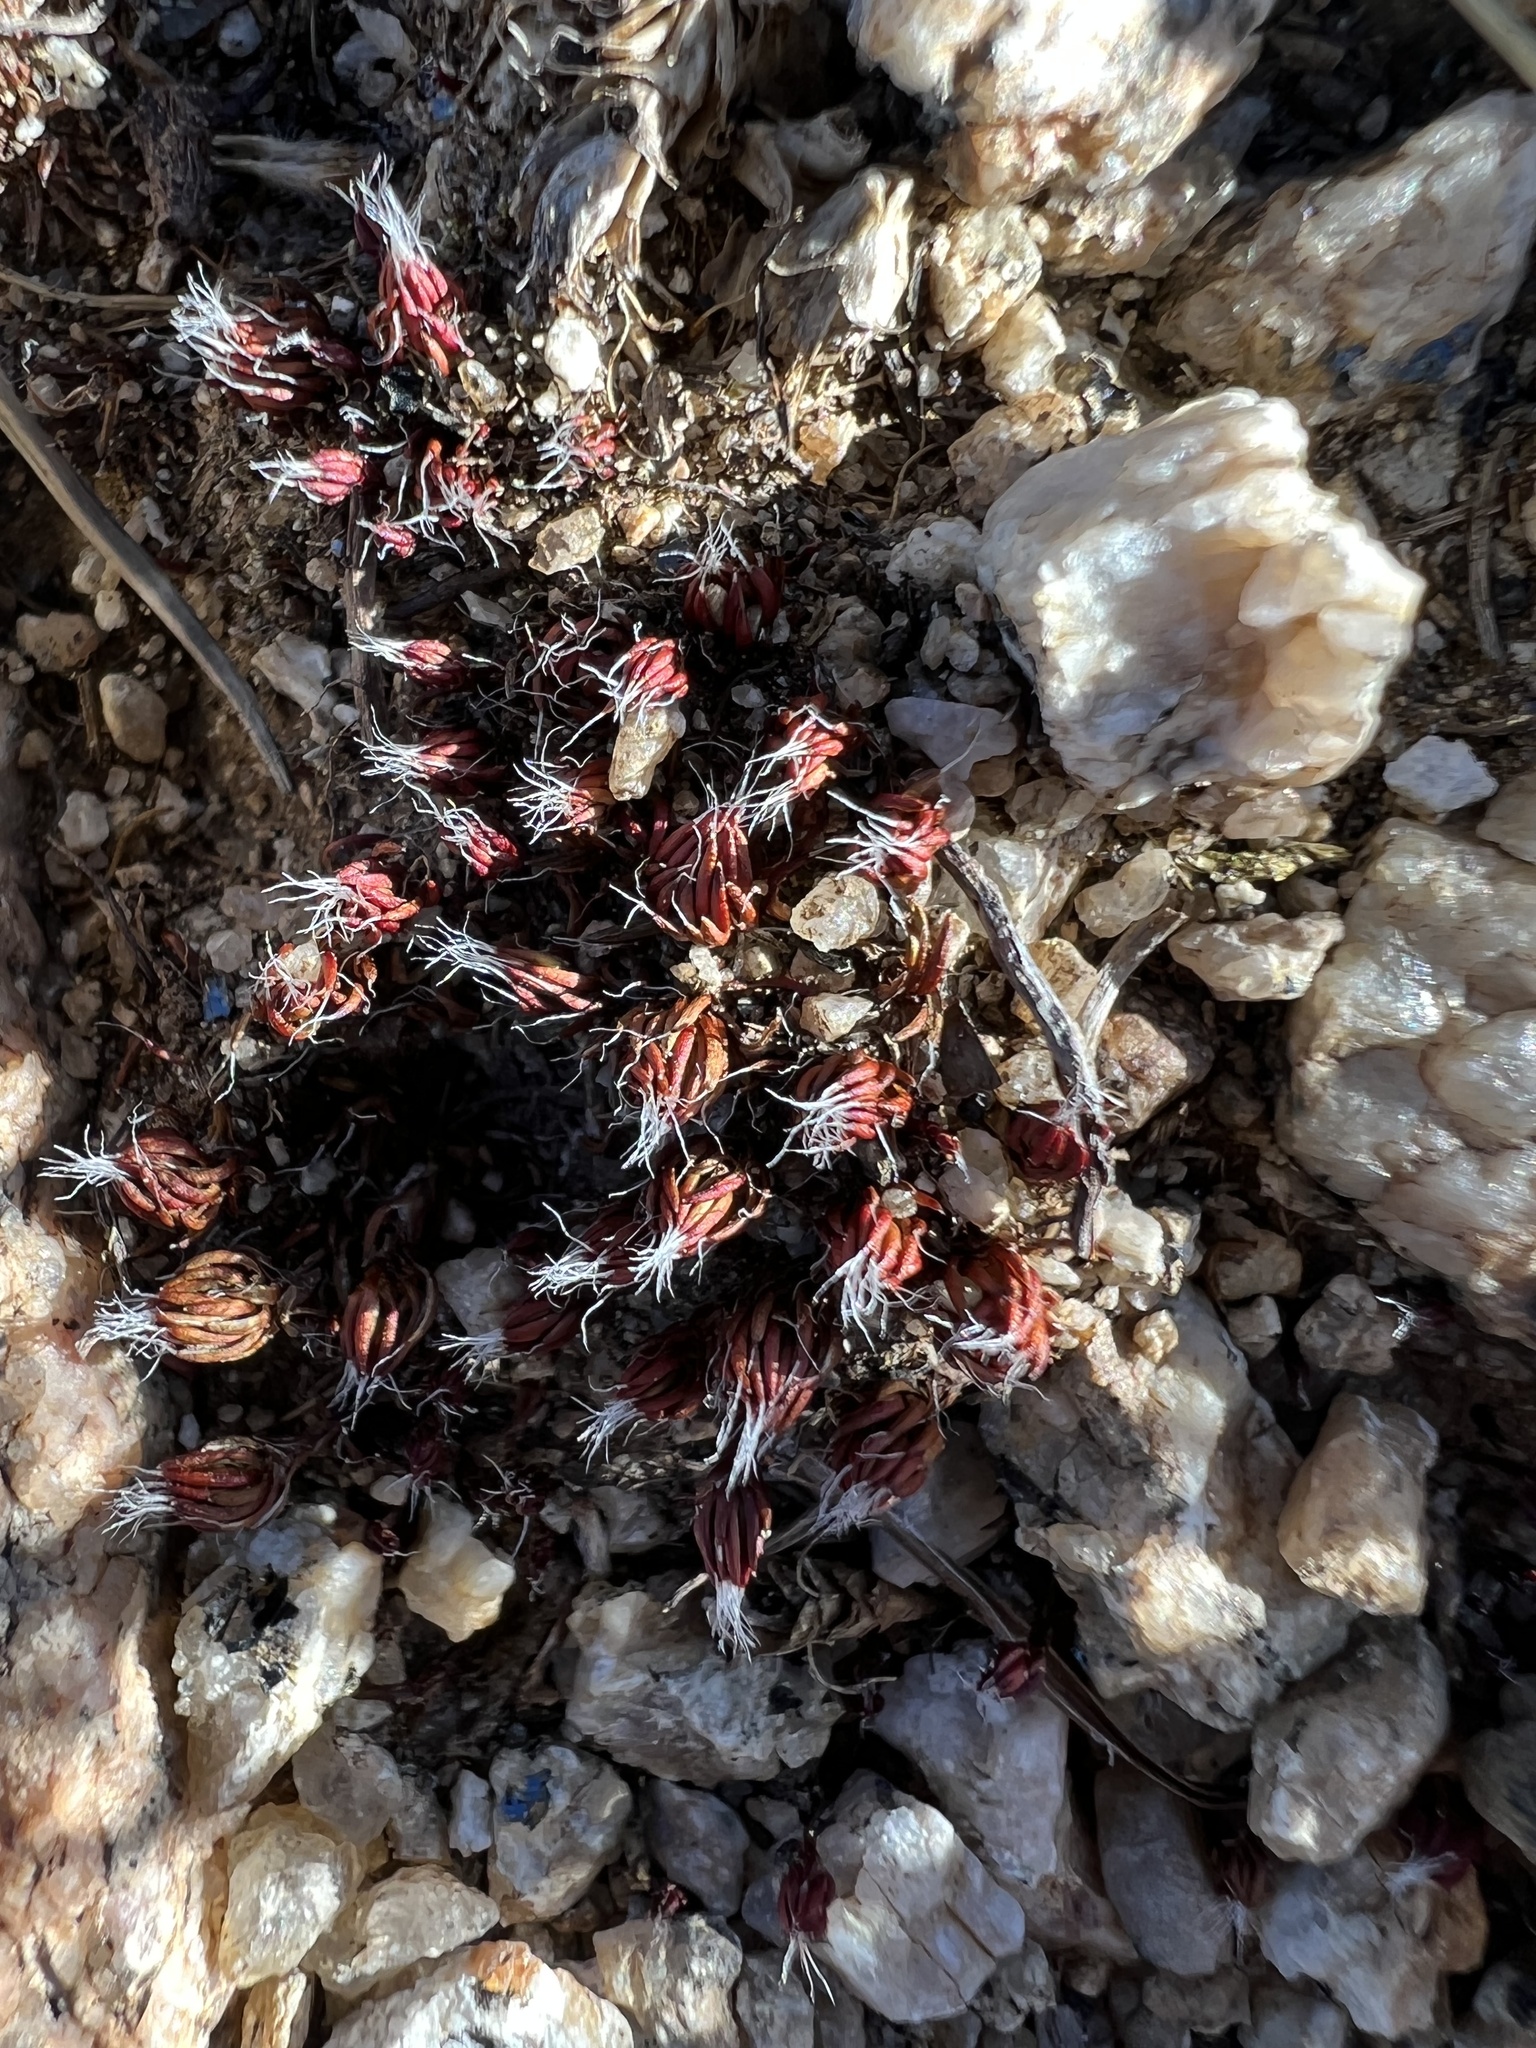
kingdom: Plantae
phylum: Bryophyta
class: Polytrichopsida
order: Polytrichales
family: Polytrichaceae
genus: Polytrichum
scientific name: Polytrichum piliferum
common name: Bristly haircap
